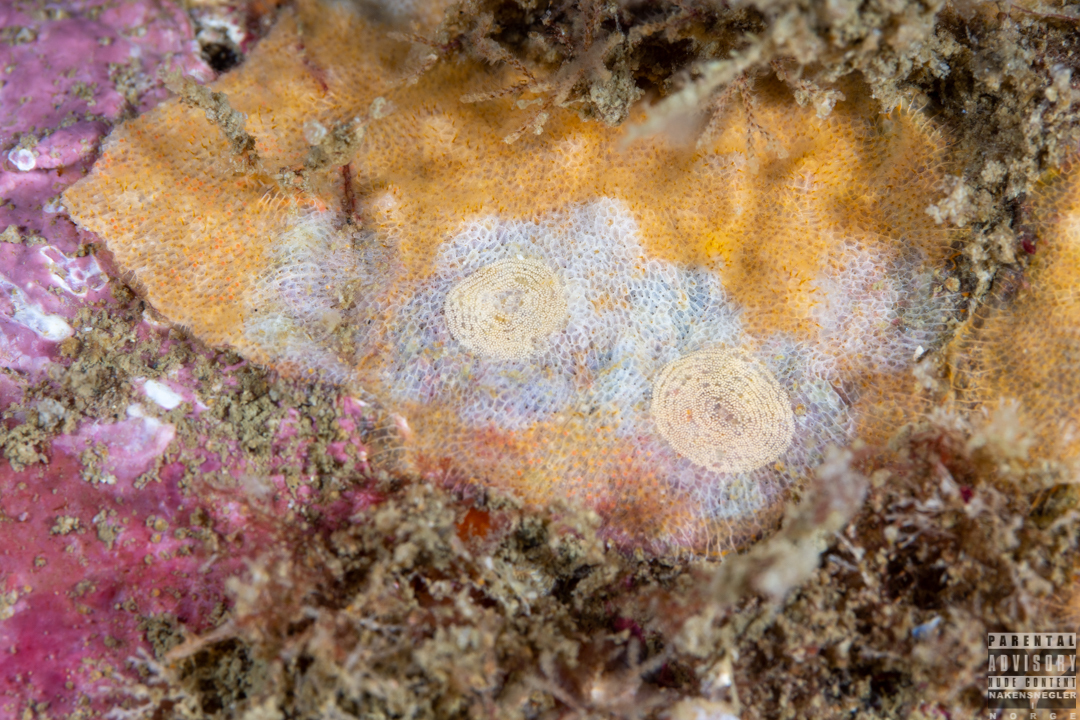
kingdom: Animalia
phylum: Mollusca
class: Gastropoda
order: Nudibranchia
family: Onchidorididae
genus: Idaliadoris
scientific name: Idaliadoris depressa
